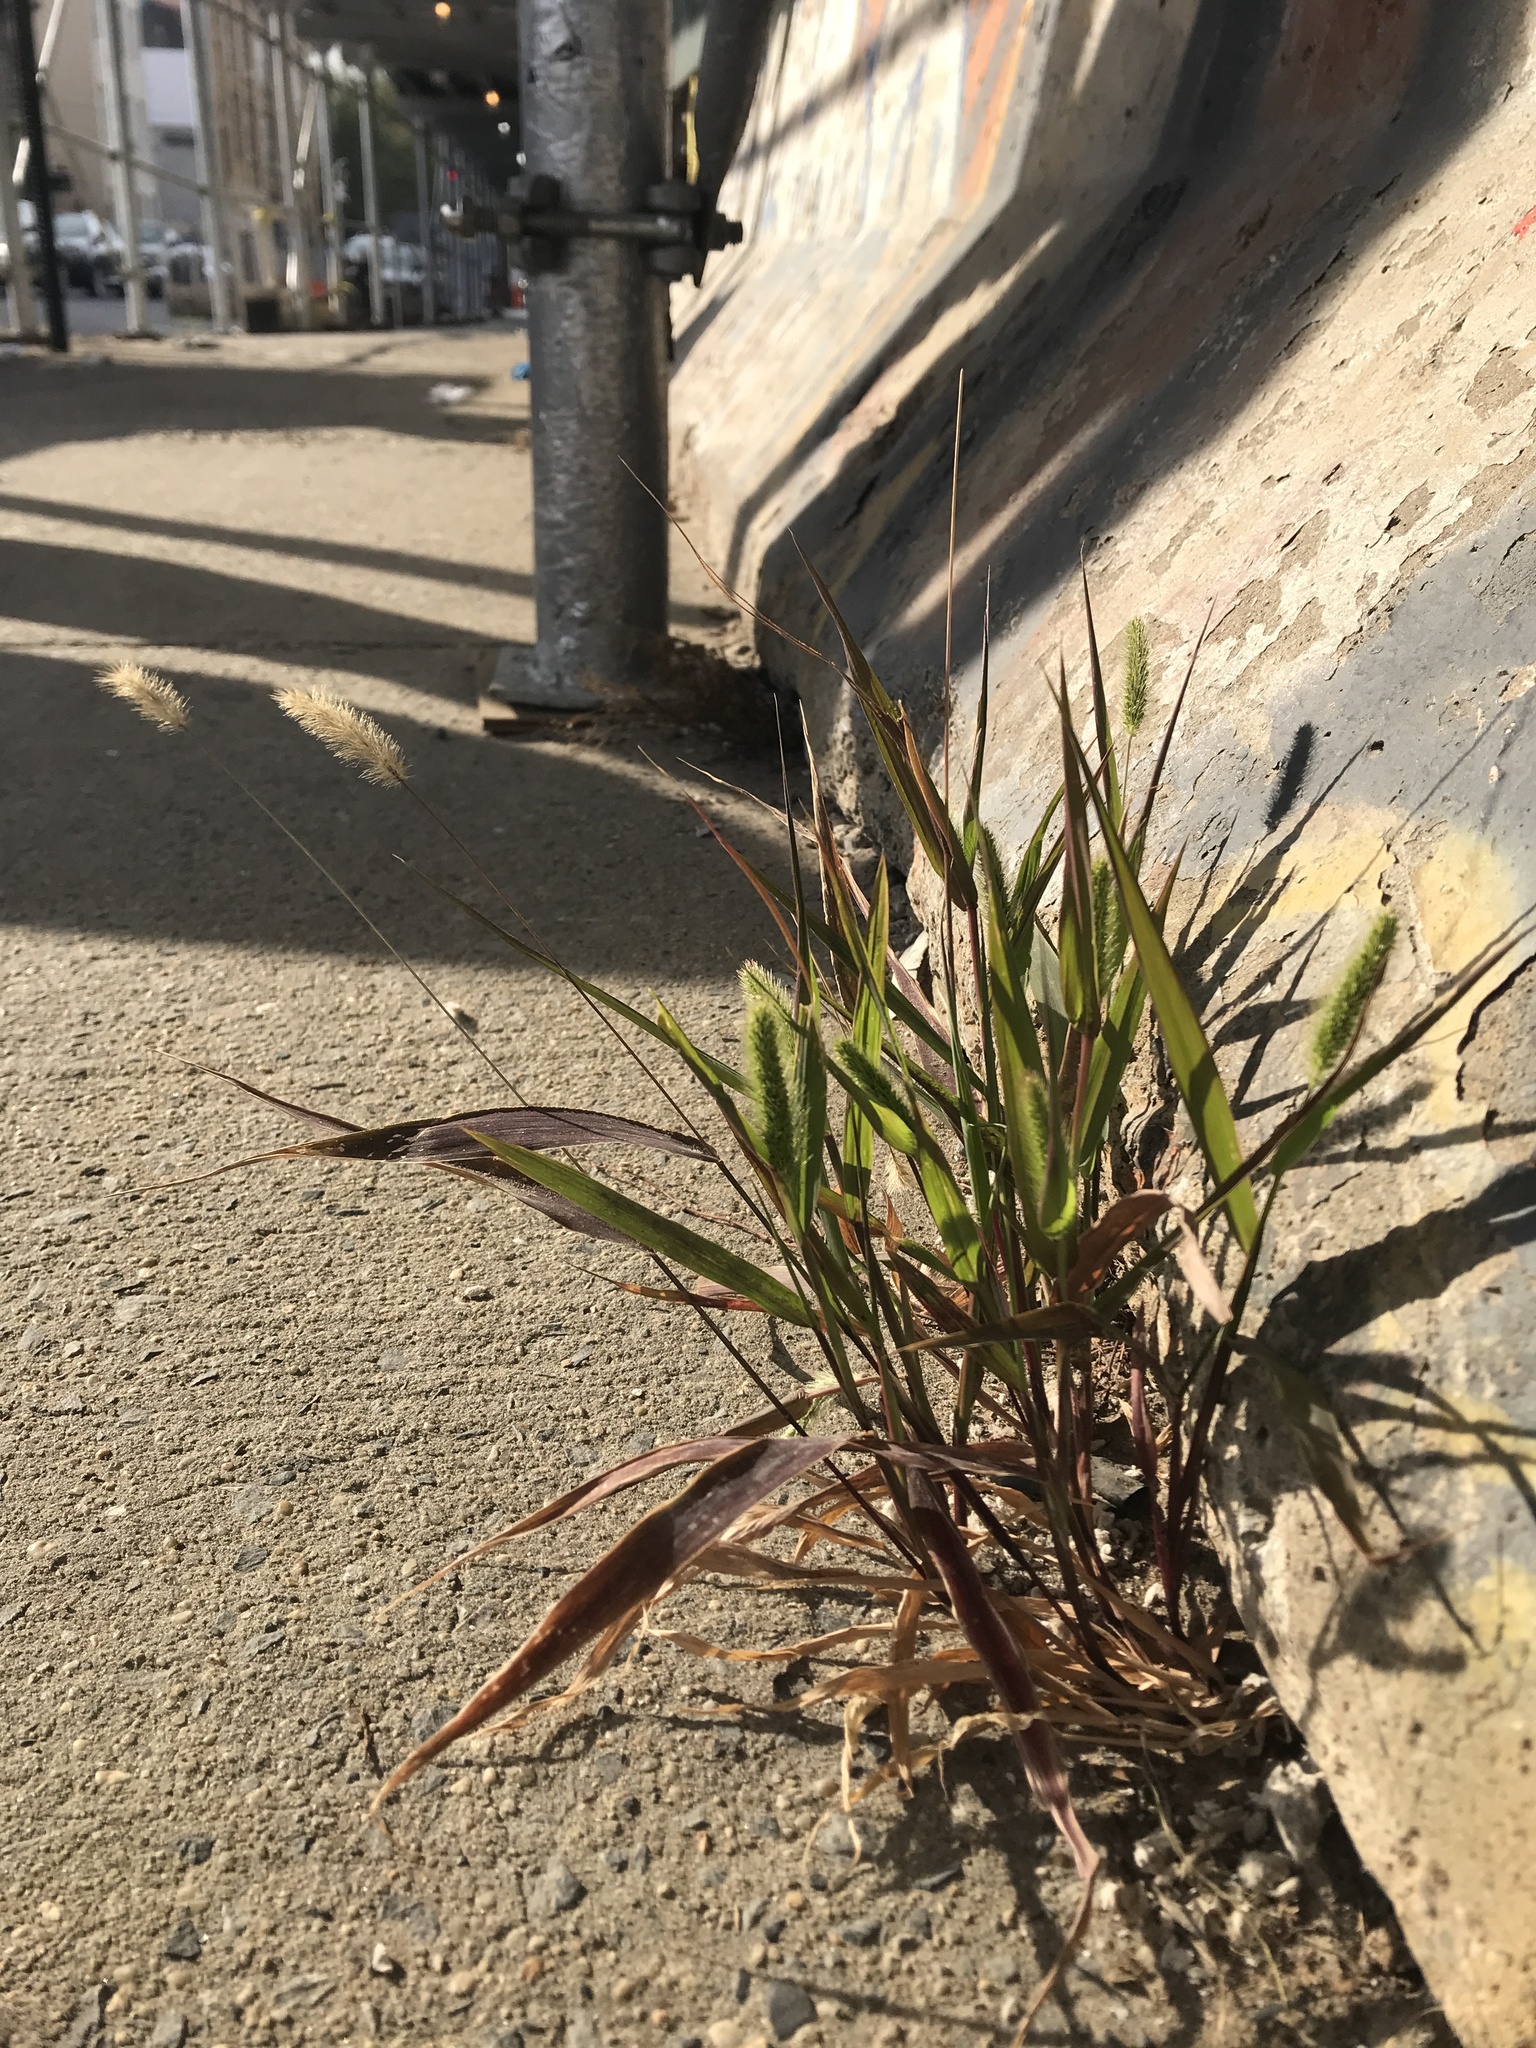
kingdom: Plantae
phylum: Tracheophyta
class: Liliopsida
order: Poales
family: Poaceae
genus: Setaria
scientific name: Setaria viridis
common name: Green bristlegrass
